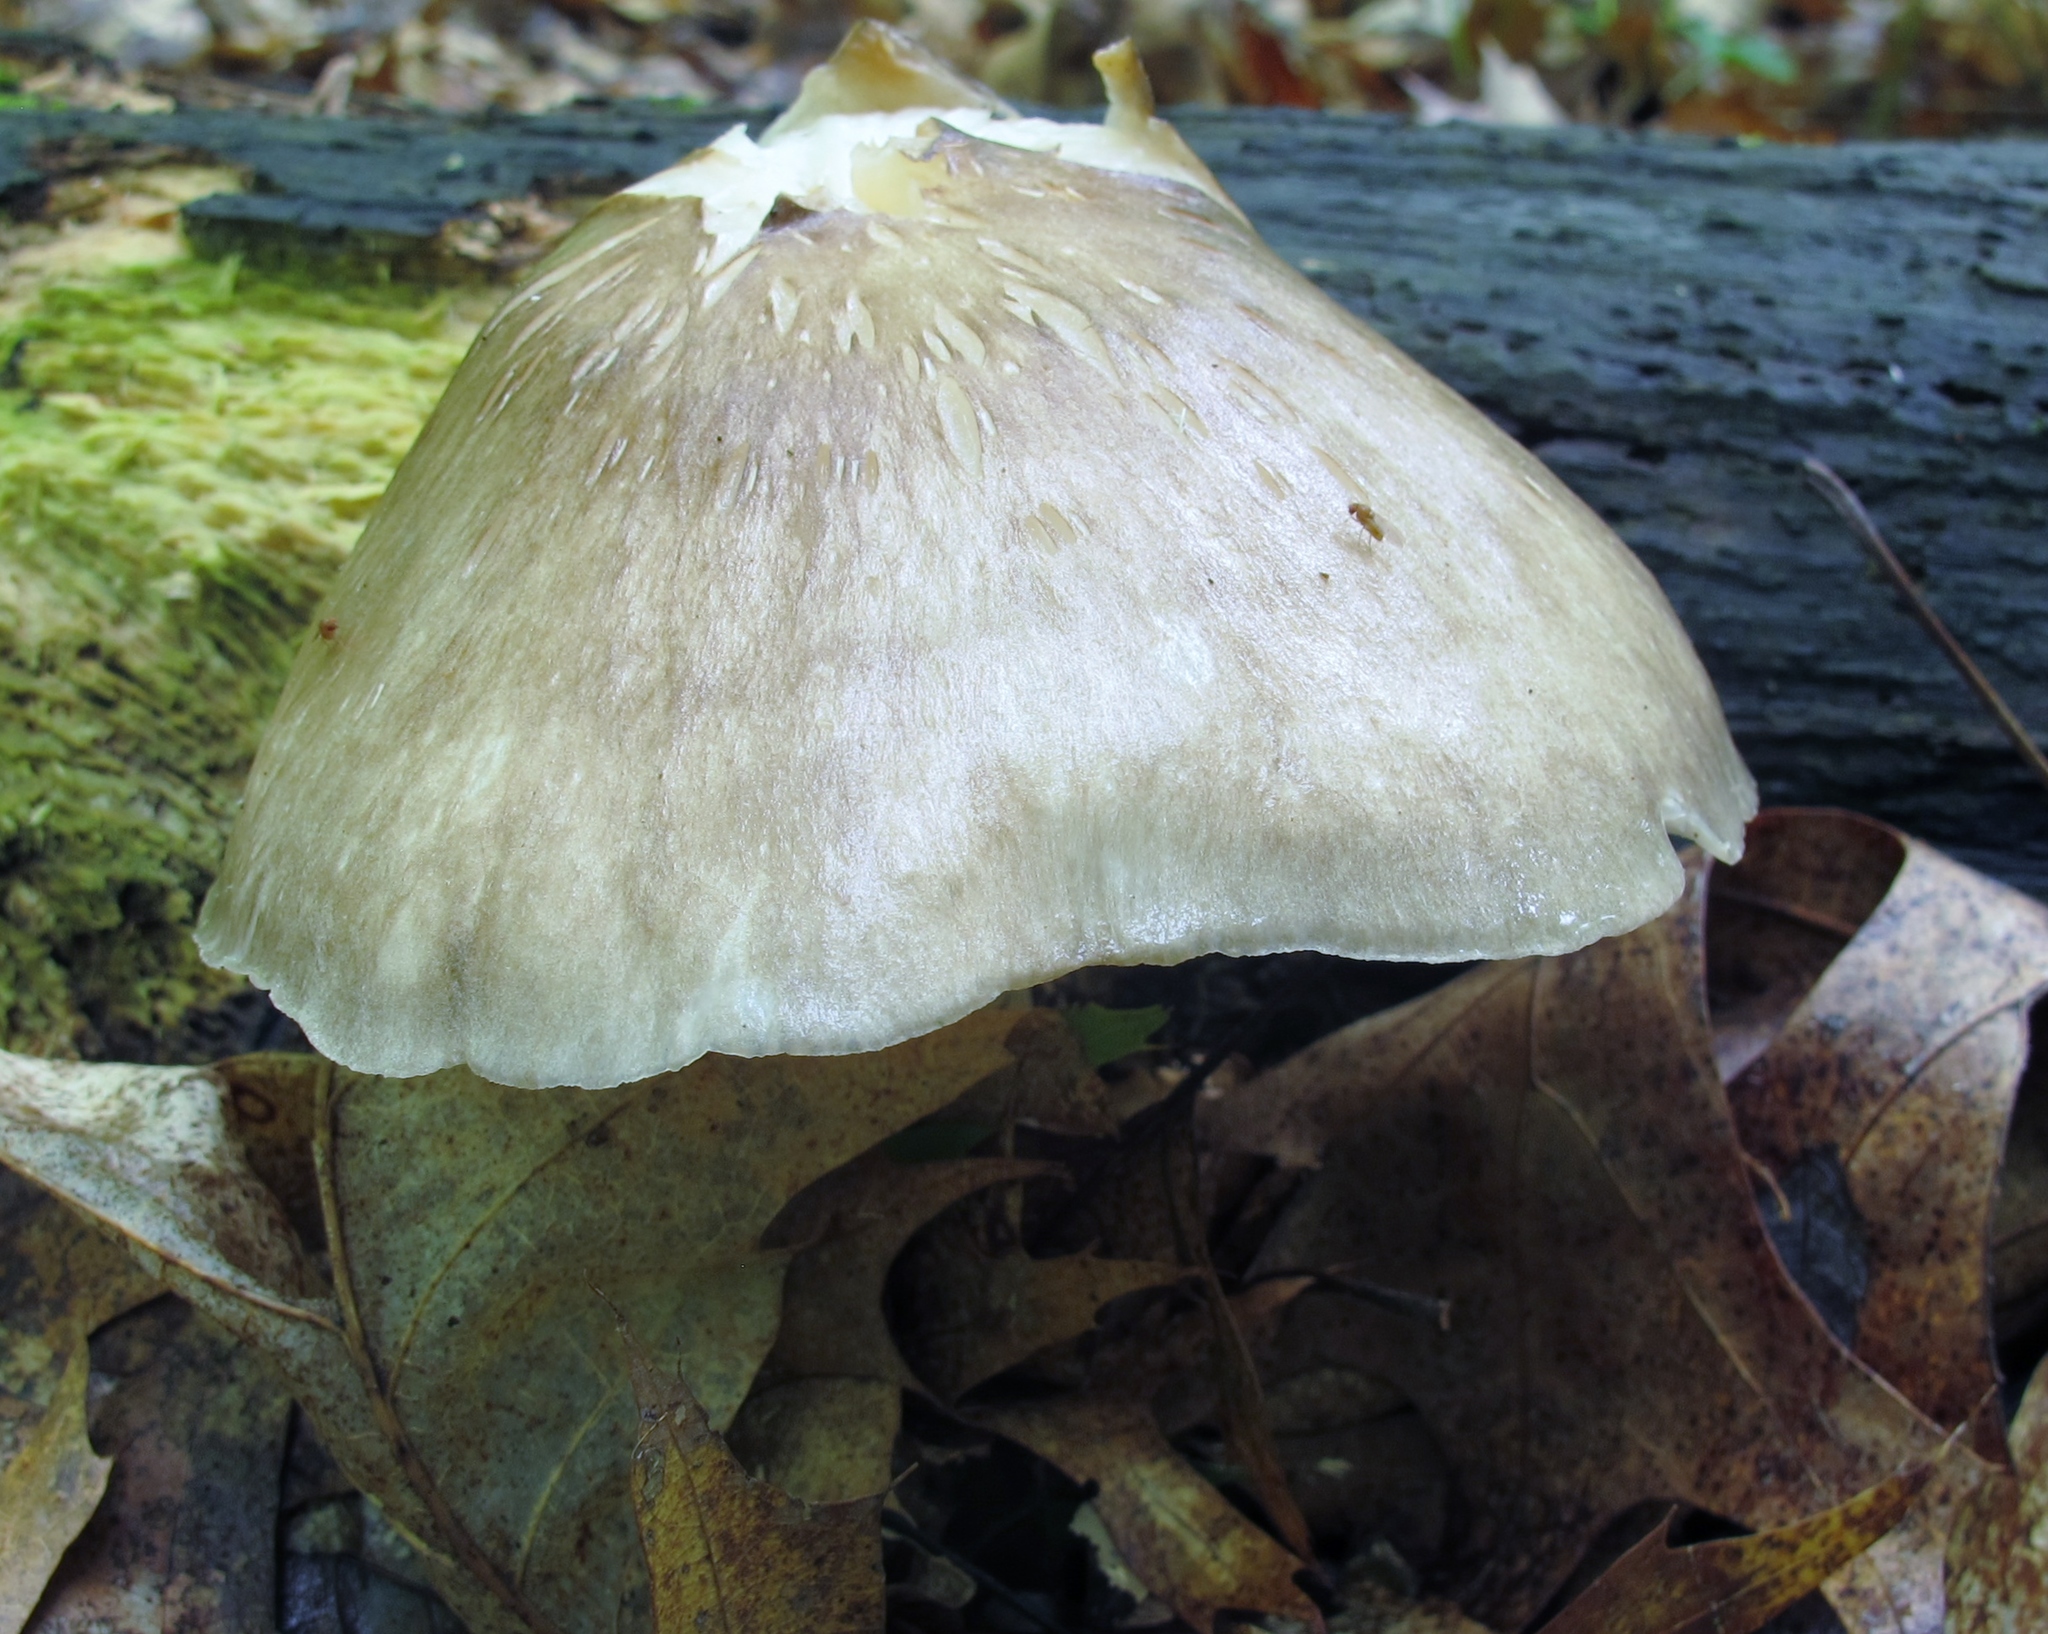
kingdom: Fungi
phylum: Basidiomycota
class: Agaricomycetes
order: Agaricales
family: Tricholomataceae
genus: Megacollybia
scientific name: Megacollybia rodmanii
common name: Eastern american platterful mushroom
